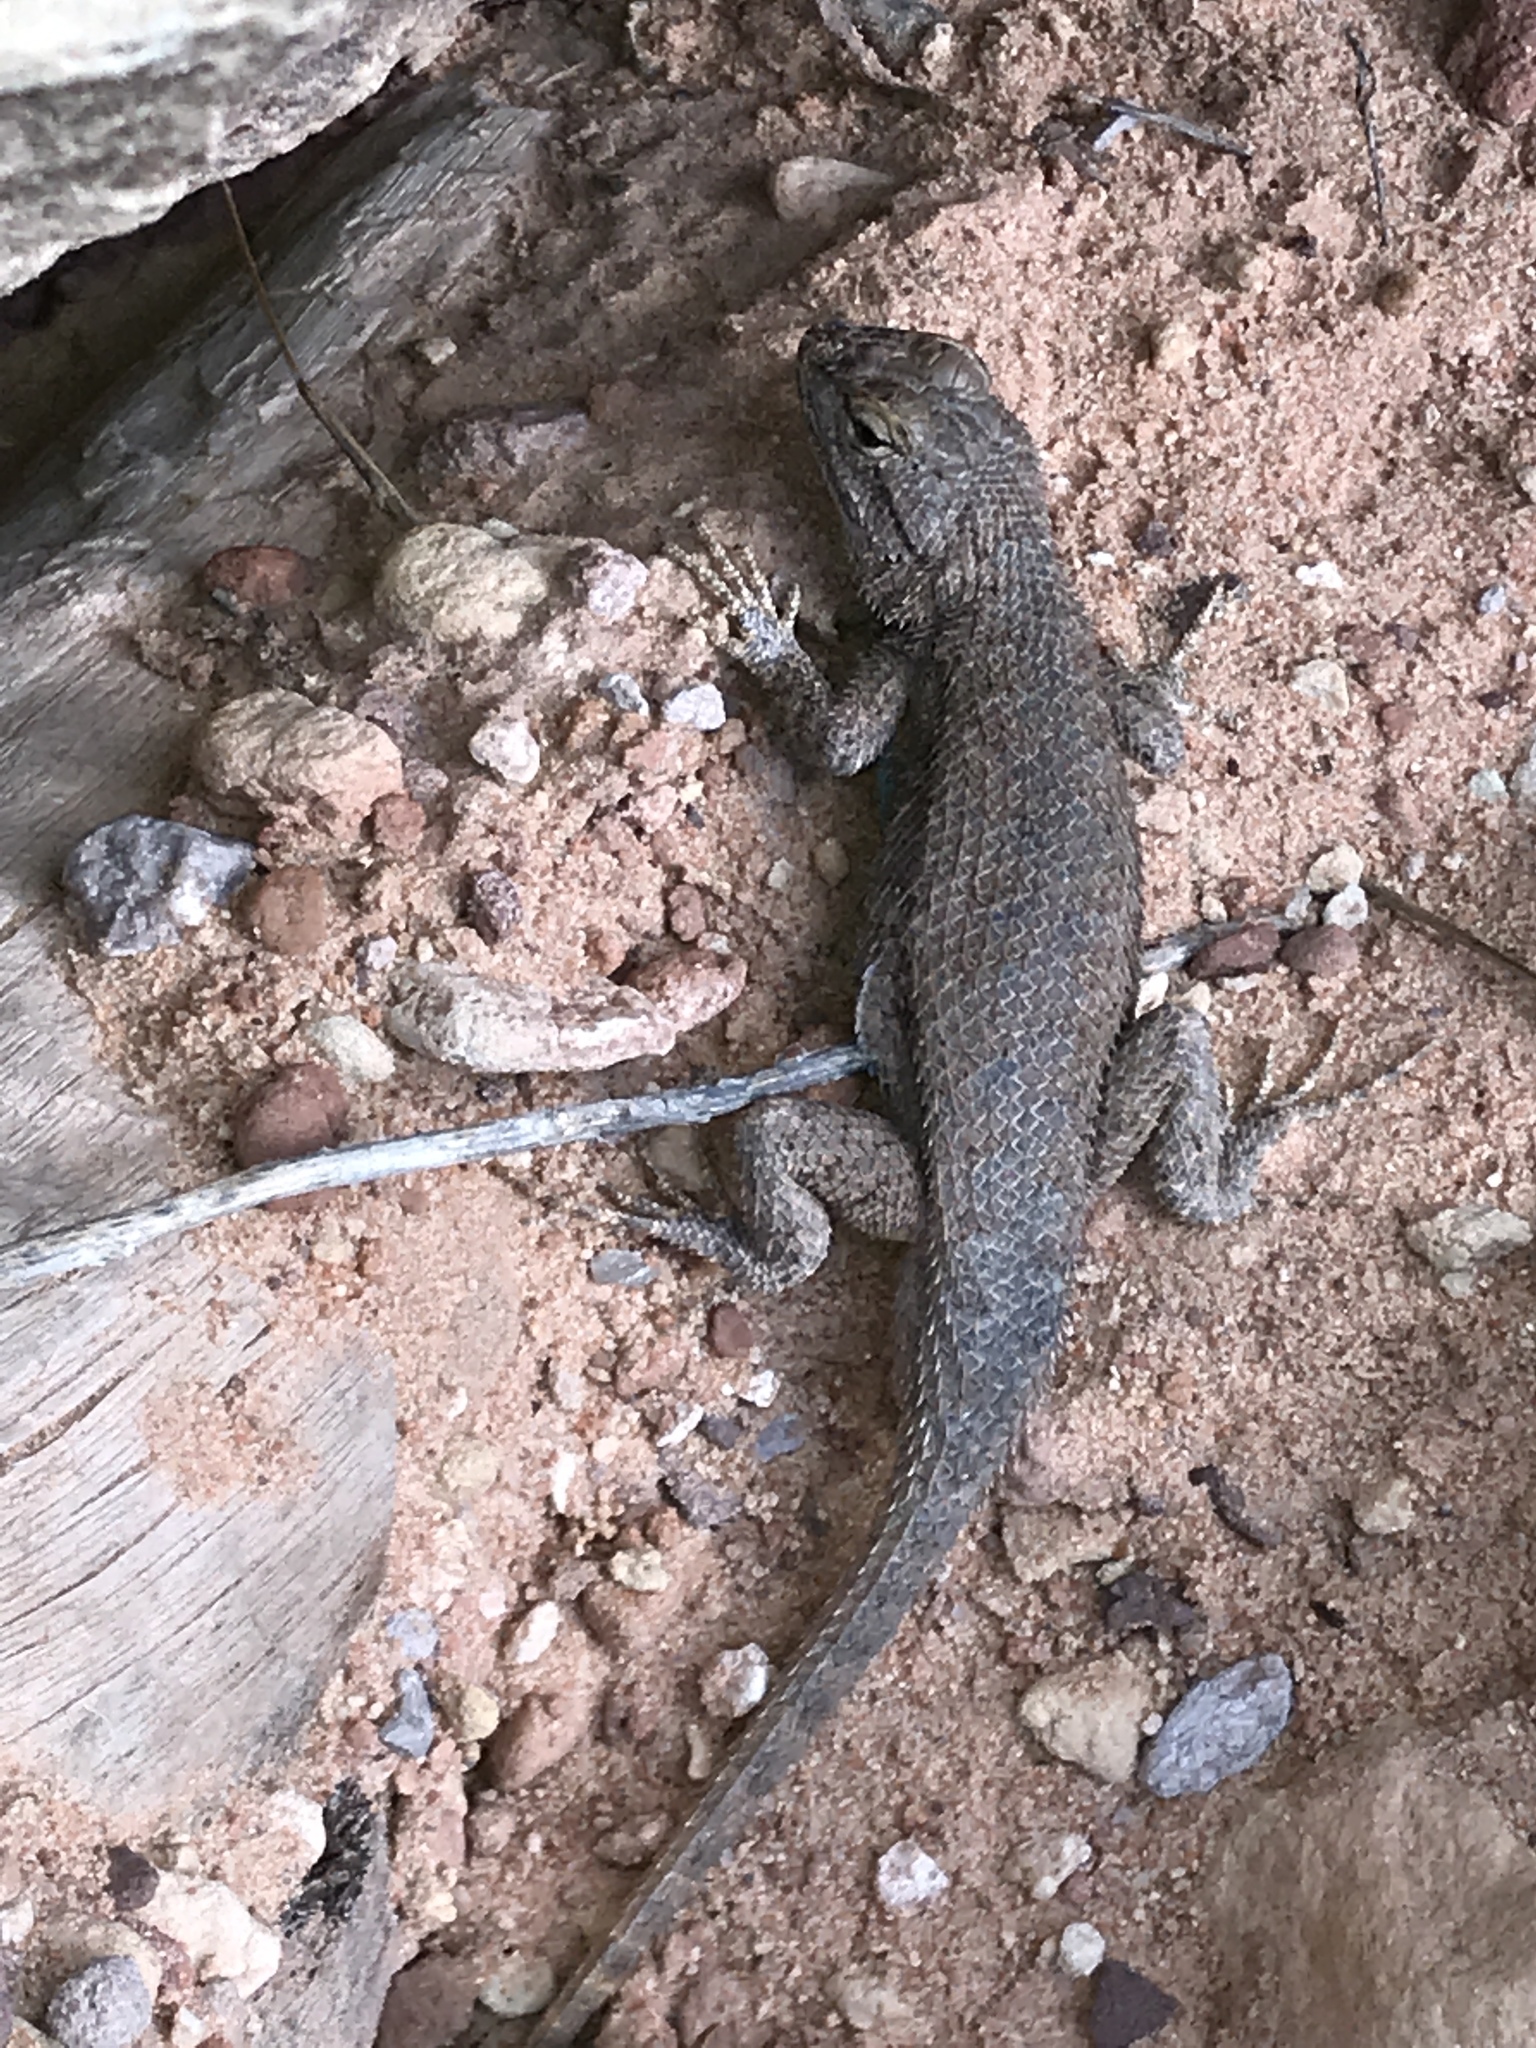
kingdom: Animalia
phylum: Chordata
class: Squamata
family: Phrynosomatidae
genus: Sceloporus
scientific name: Sceloporus tristichus
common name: Plateau fence lizard
